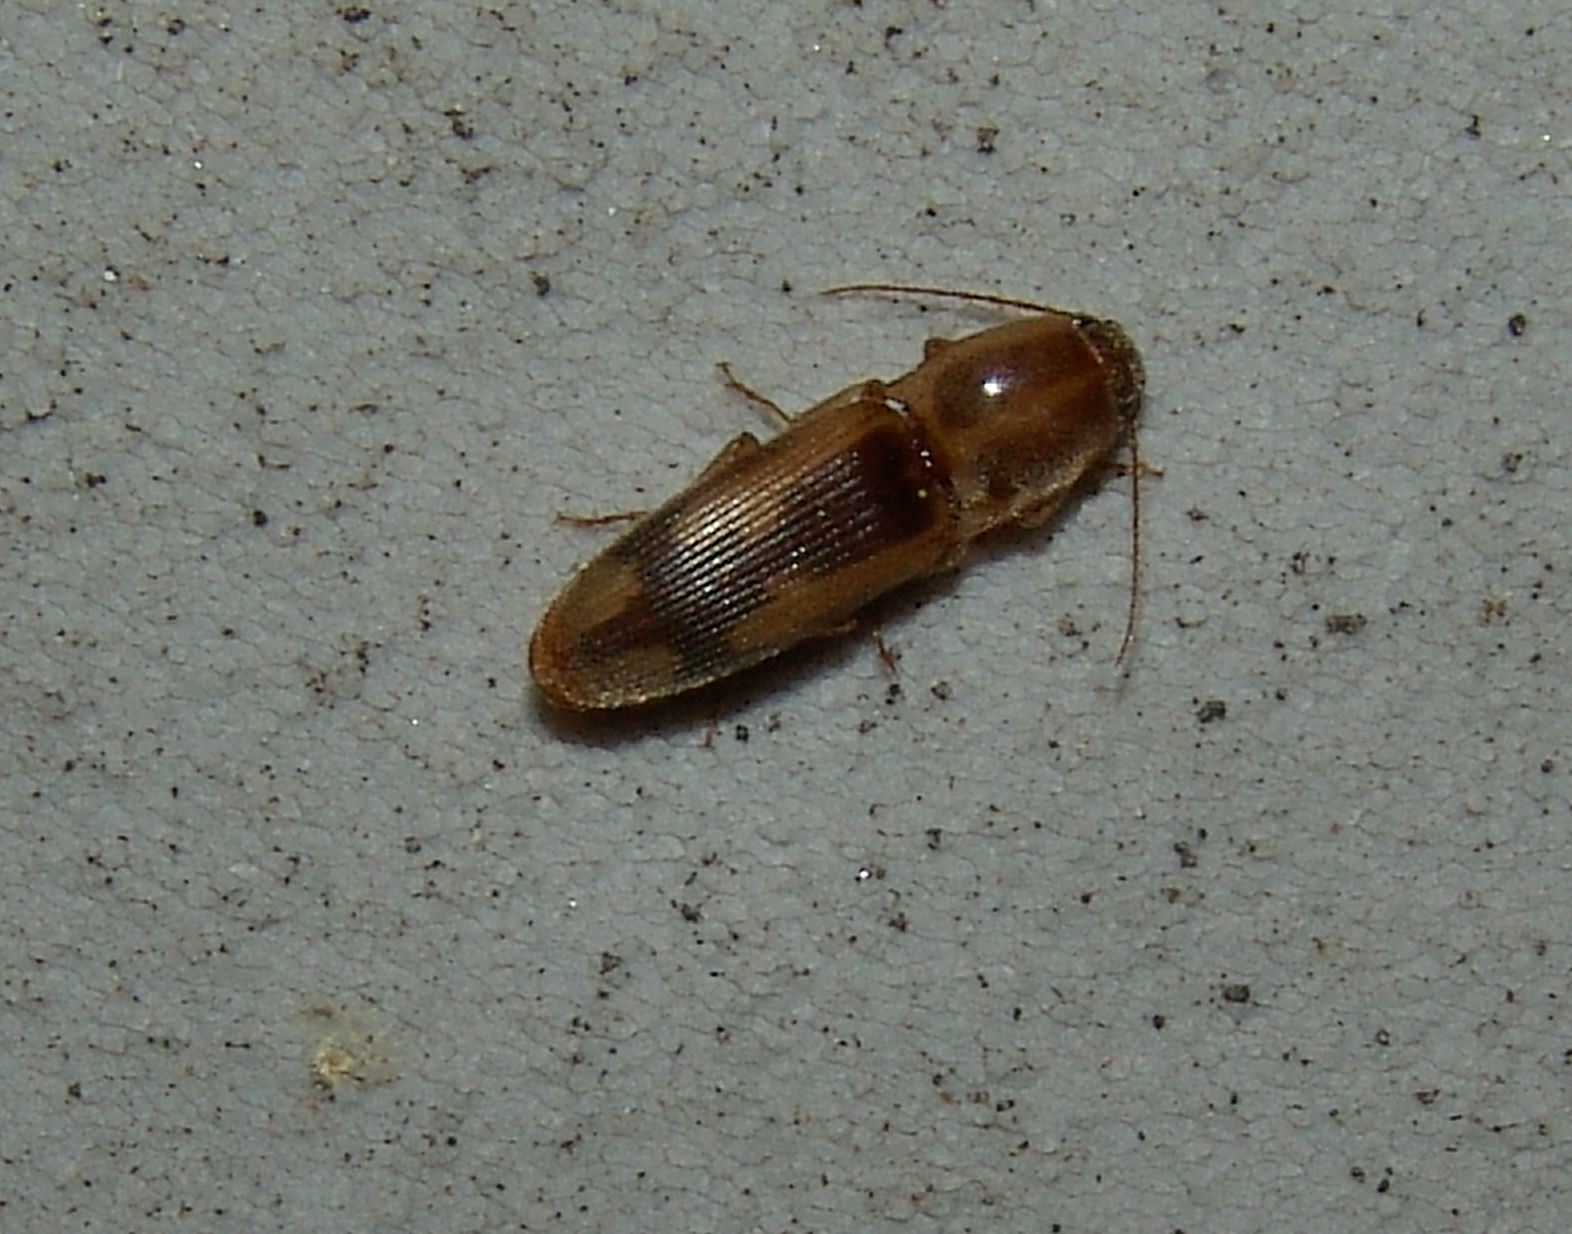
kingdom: Animalia
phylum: Arthropoda
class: Insecta
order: Coleoptera
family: Elateridae
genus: Monocrepidius
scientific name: Monocrepidius
